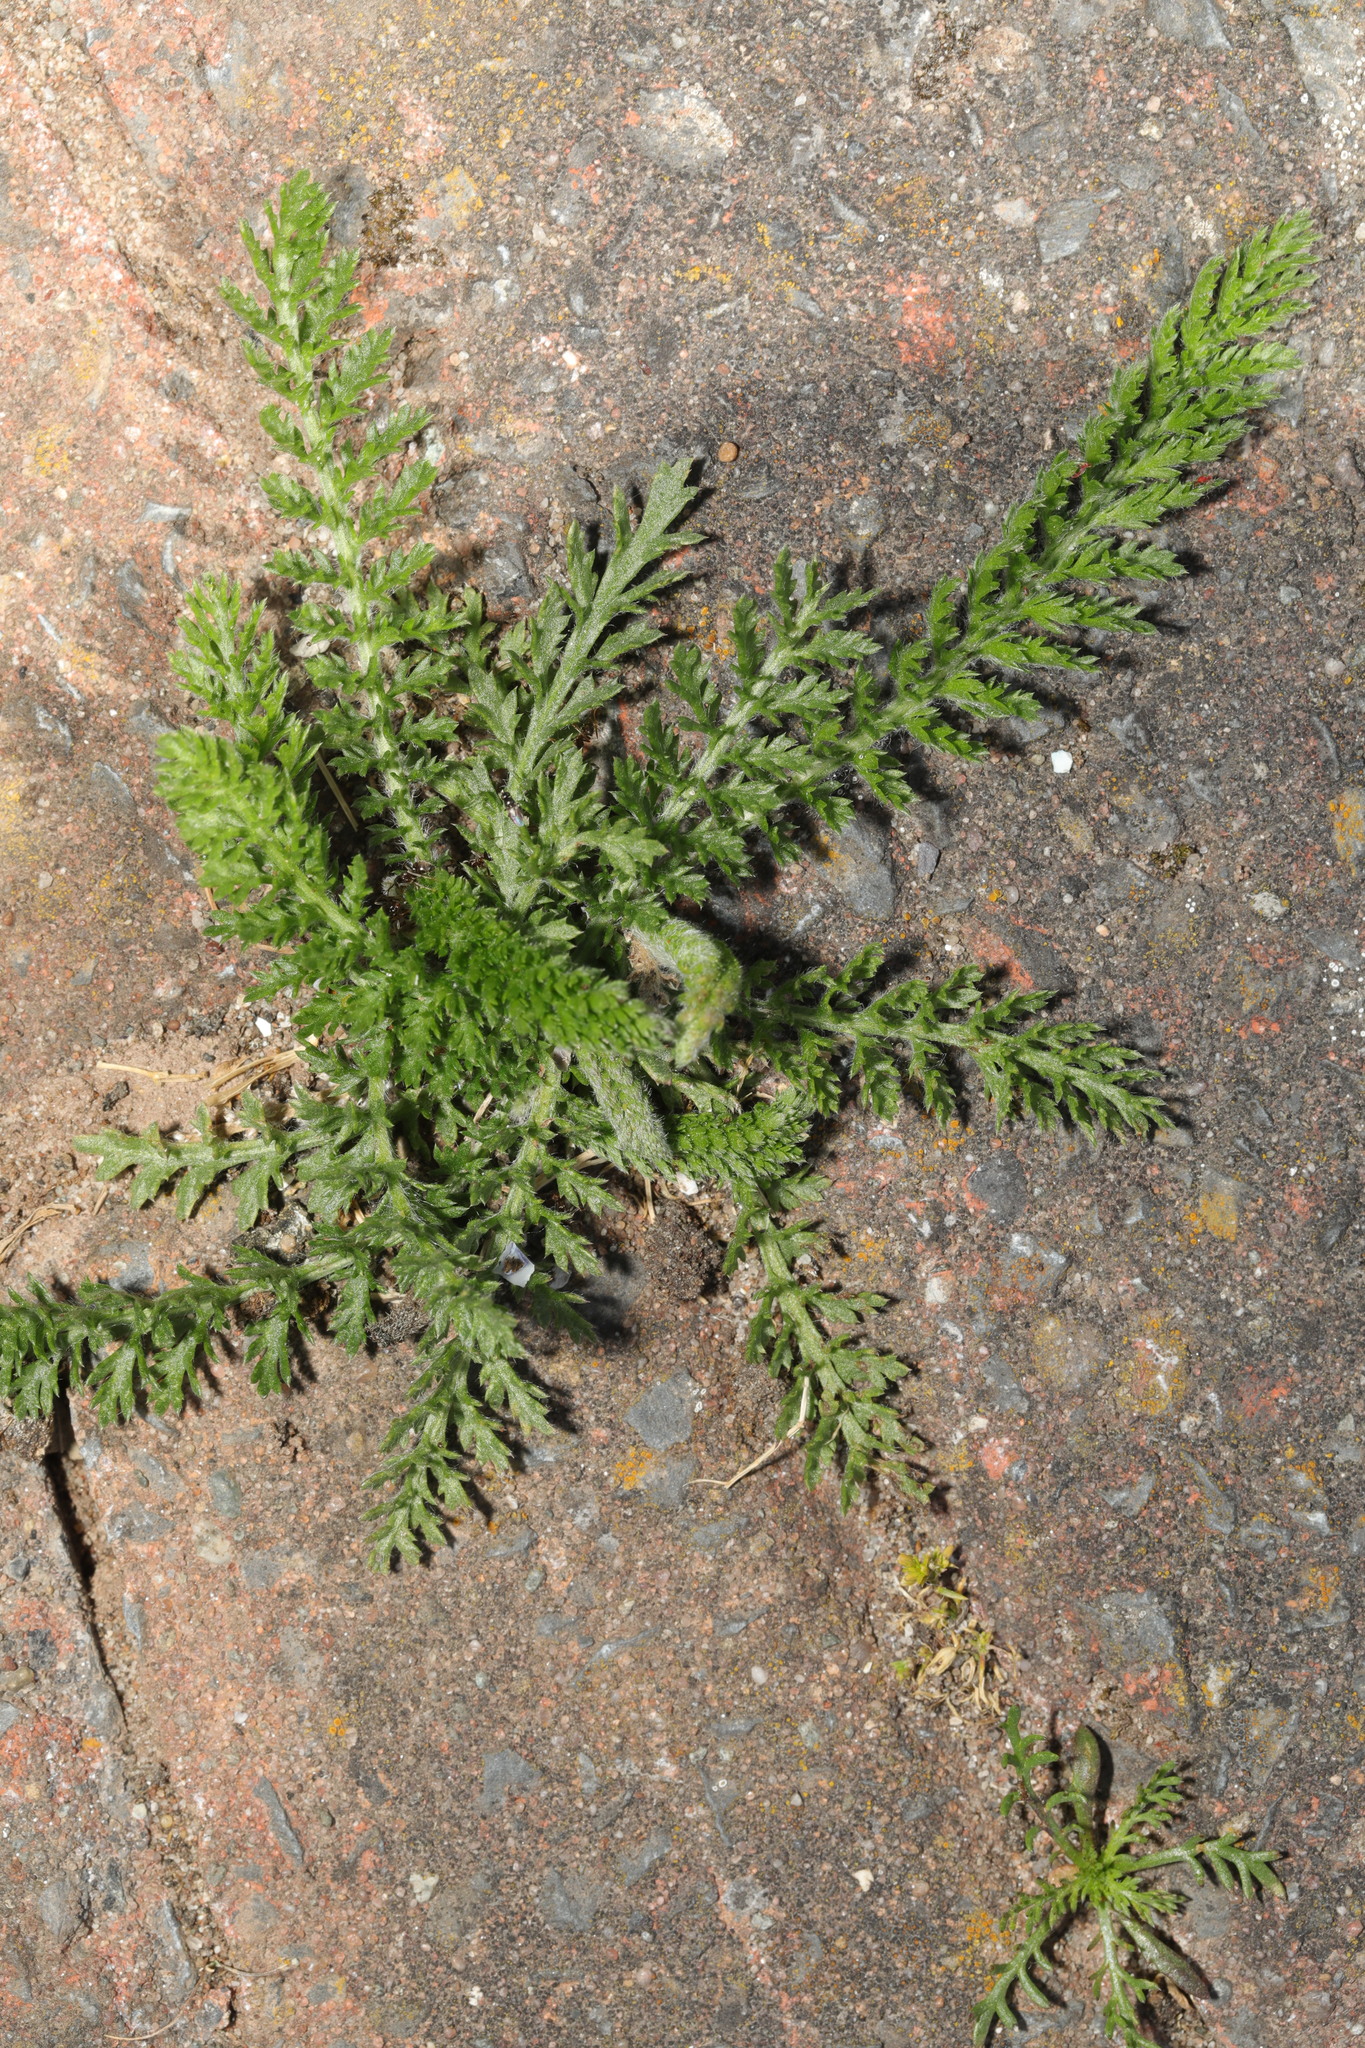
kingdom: Plantae
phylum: Tracheophyta
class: Magnoliopsida
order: Asterales
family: Asteraceae
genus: Achillea
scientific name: Achillea millefolium
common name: Yarrow
